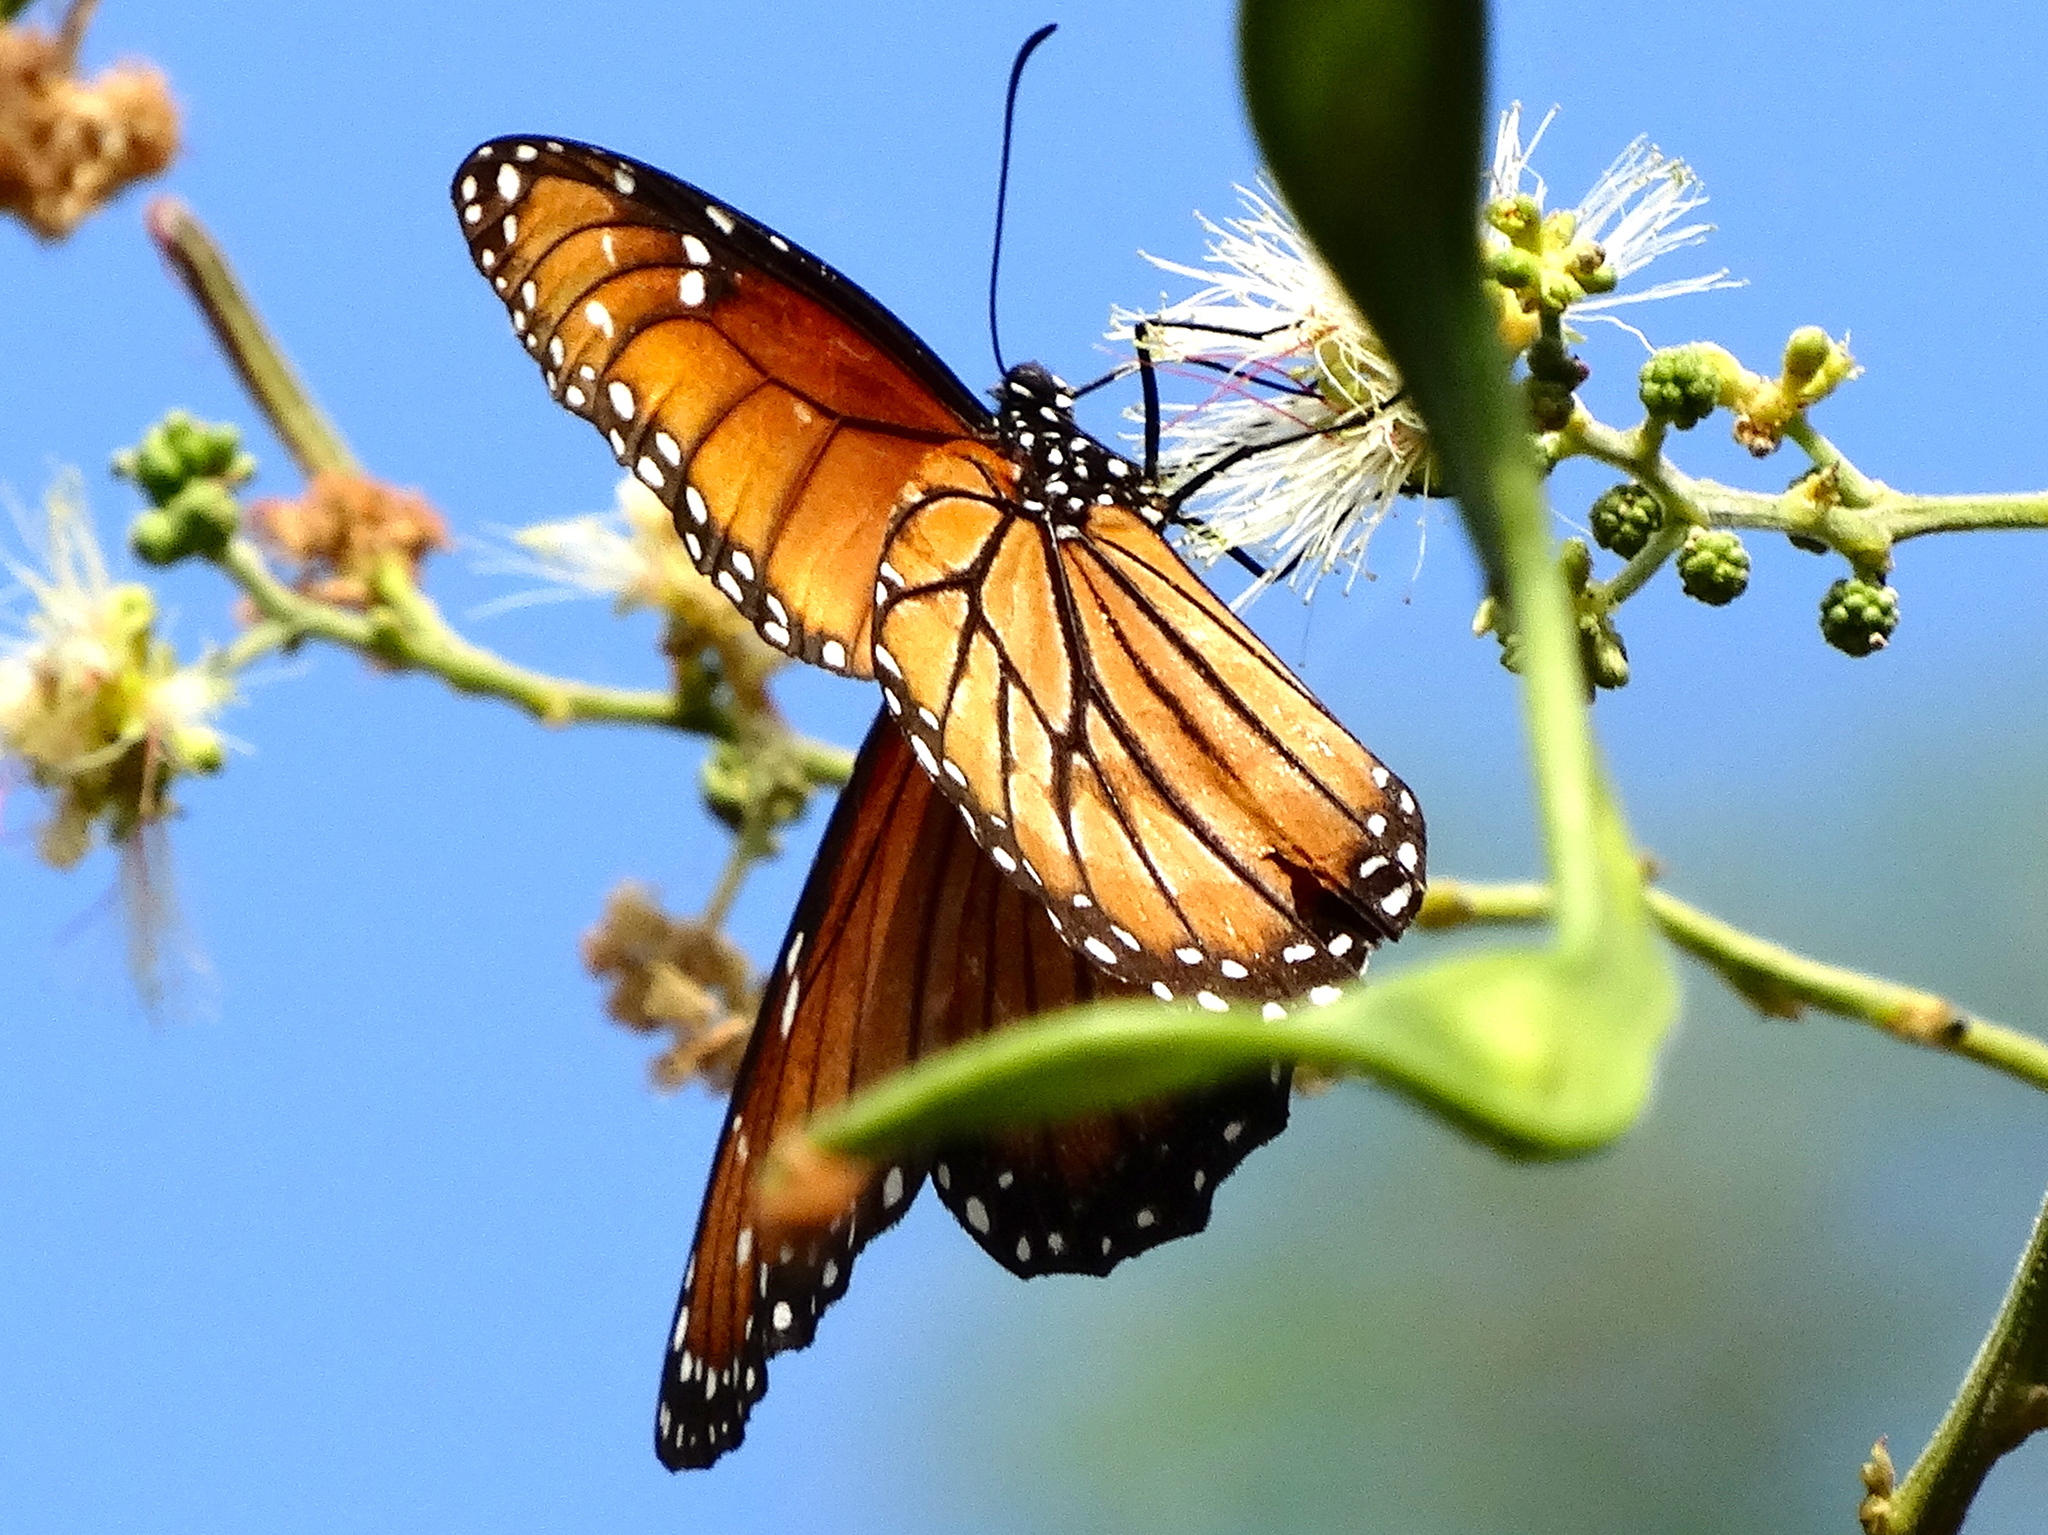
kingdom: Animalia
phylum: Arthropoda
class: Insecta
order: Lepidoptera
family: Nymphalidae
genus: Danaus
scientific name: Danaus eresimus
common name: Soldier
